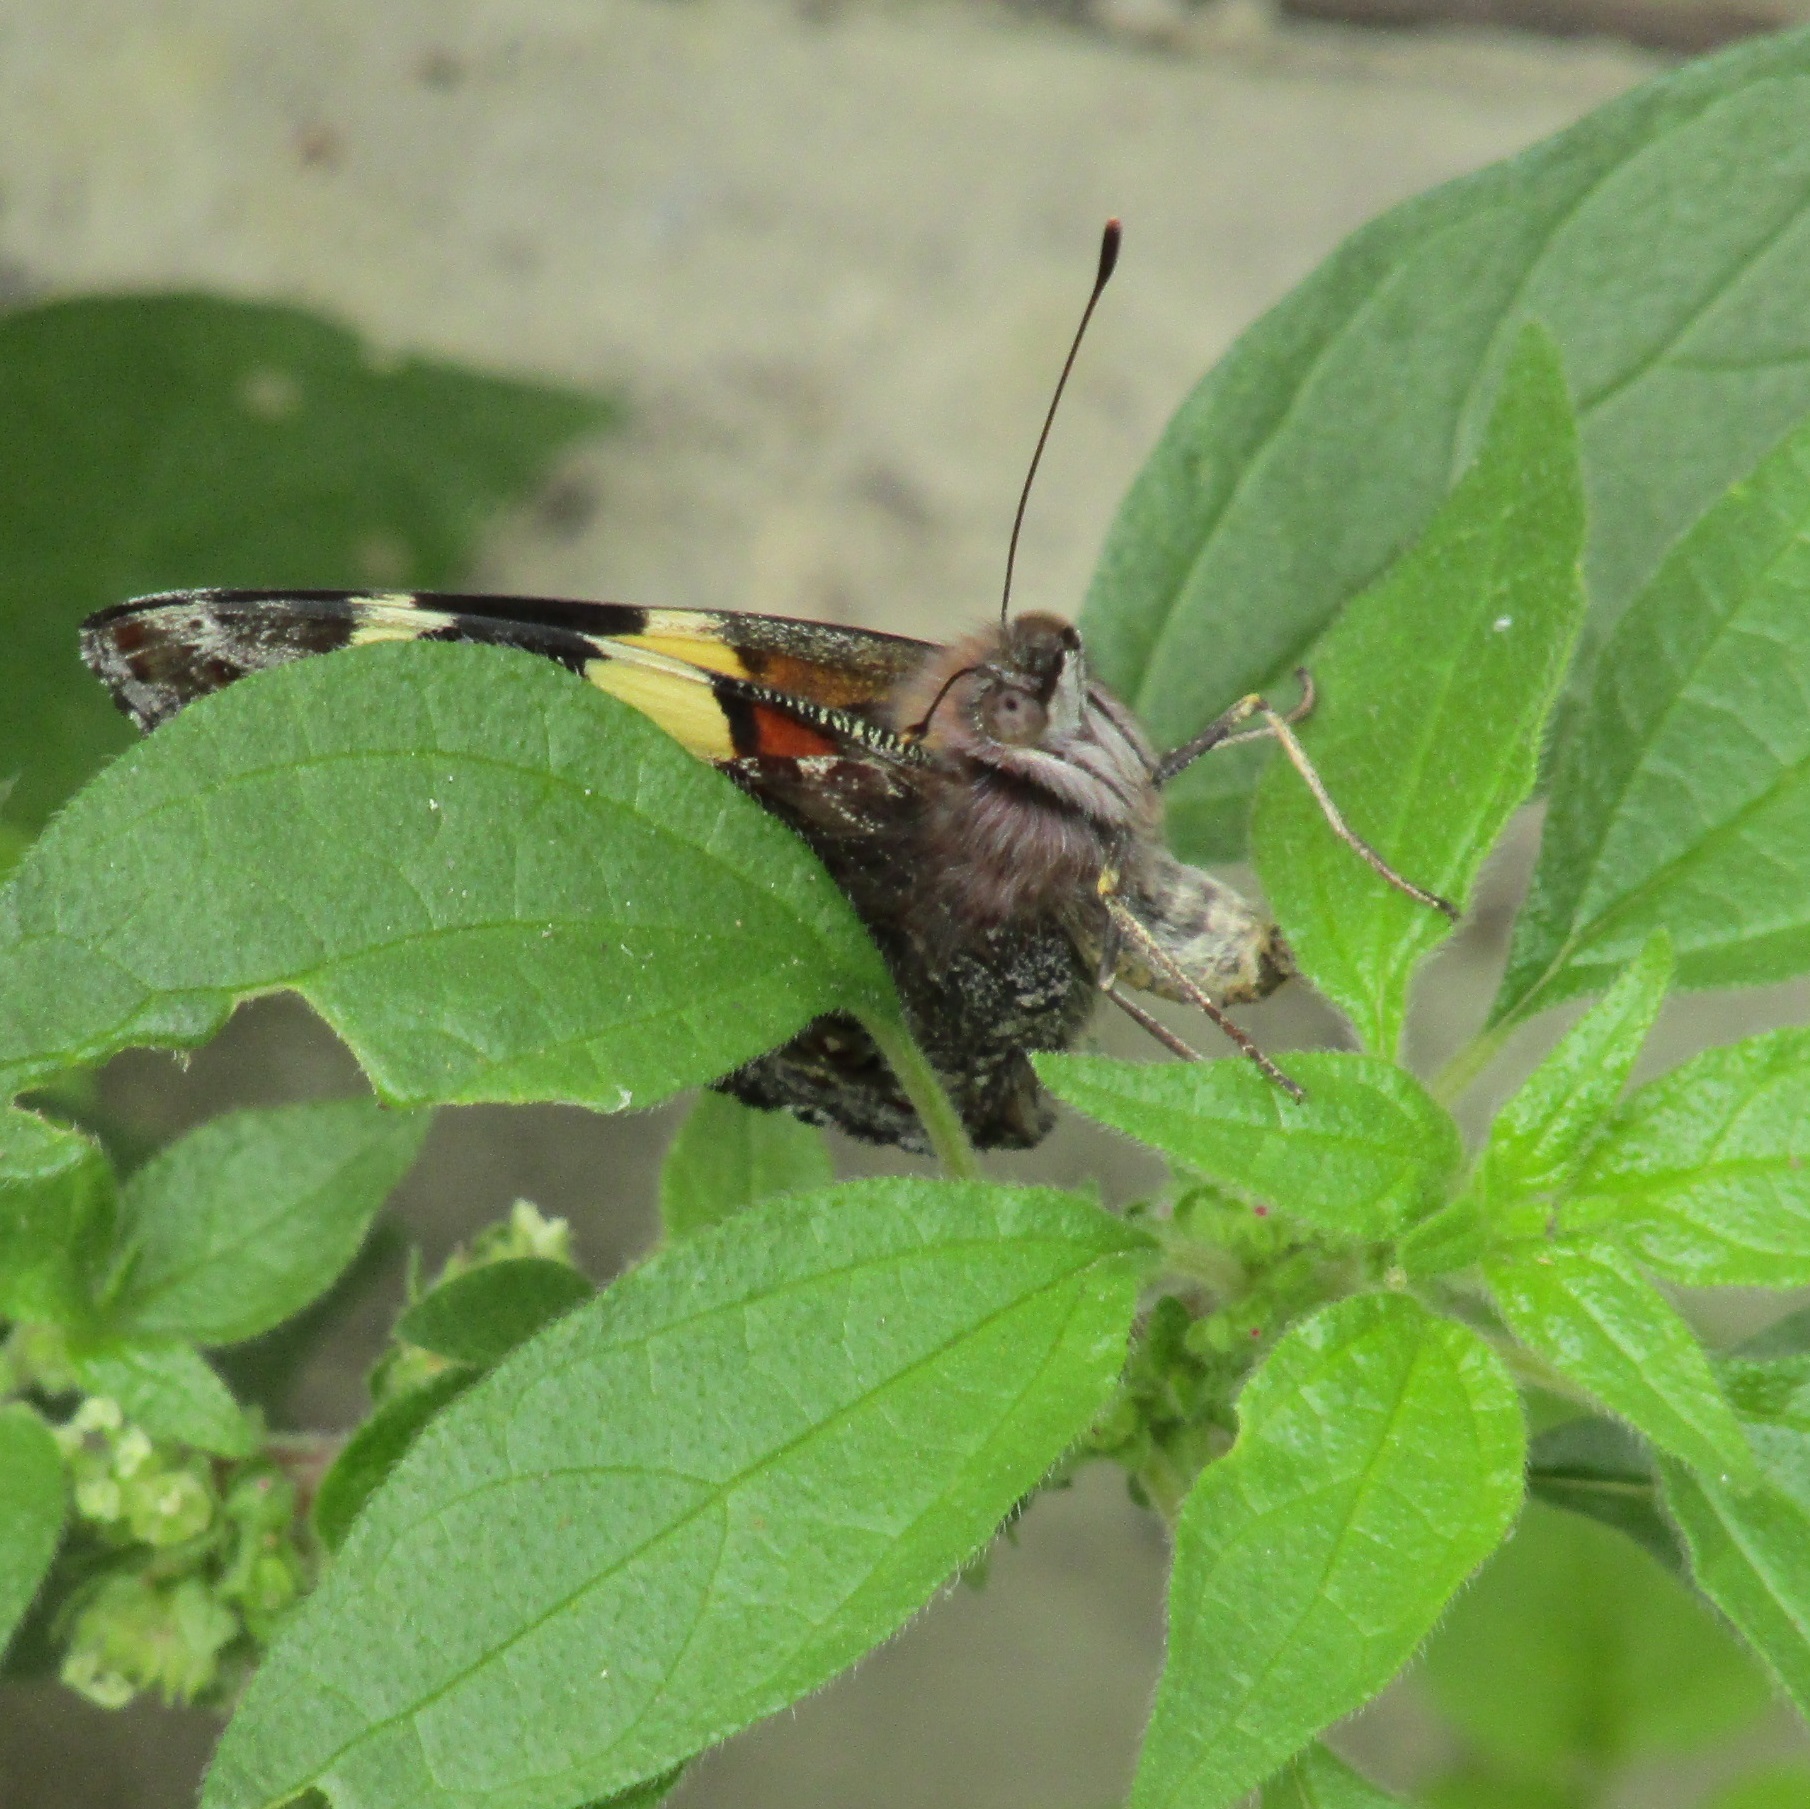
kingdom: Animalia
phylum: Arthropoda
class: Insecta
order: Lepidoptera
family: Nymphalidae
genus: Vanessa
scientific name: Vanessa itea
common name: Yellow admiral
